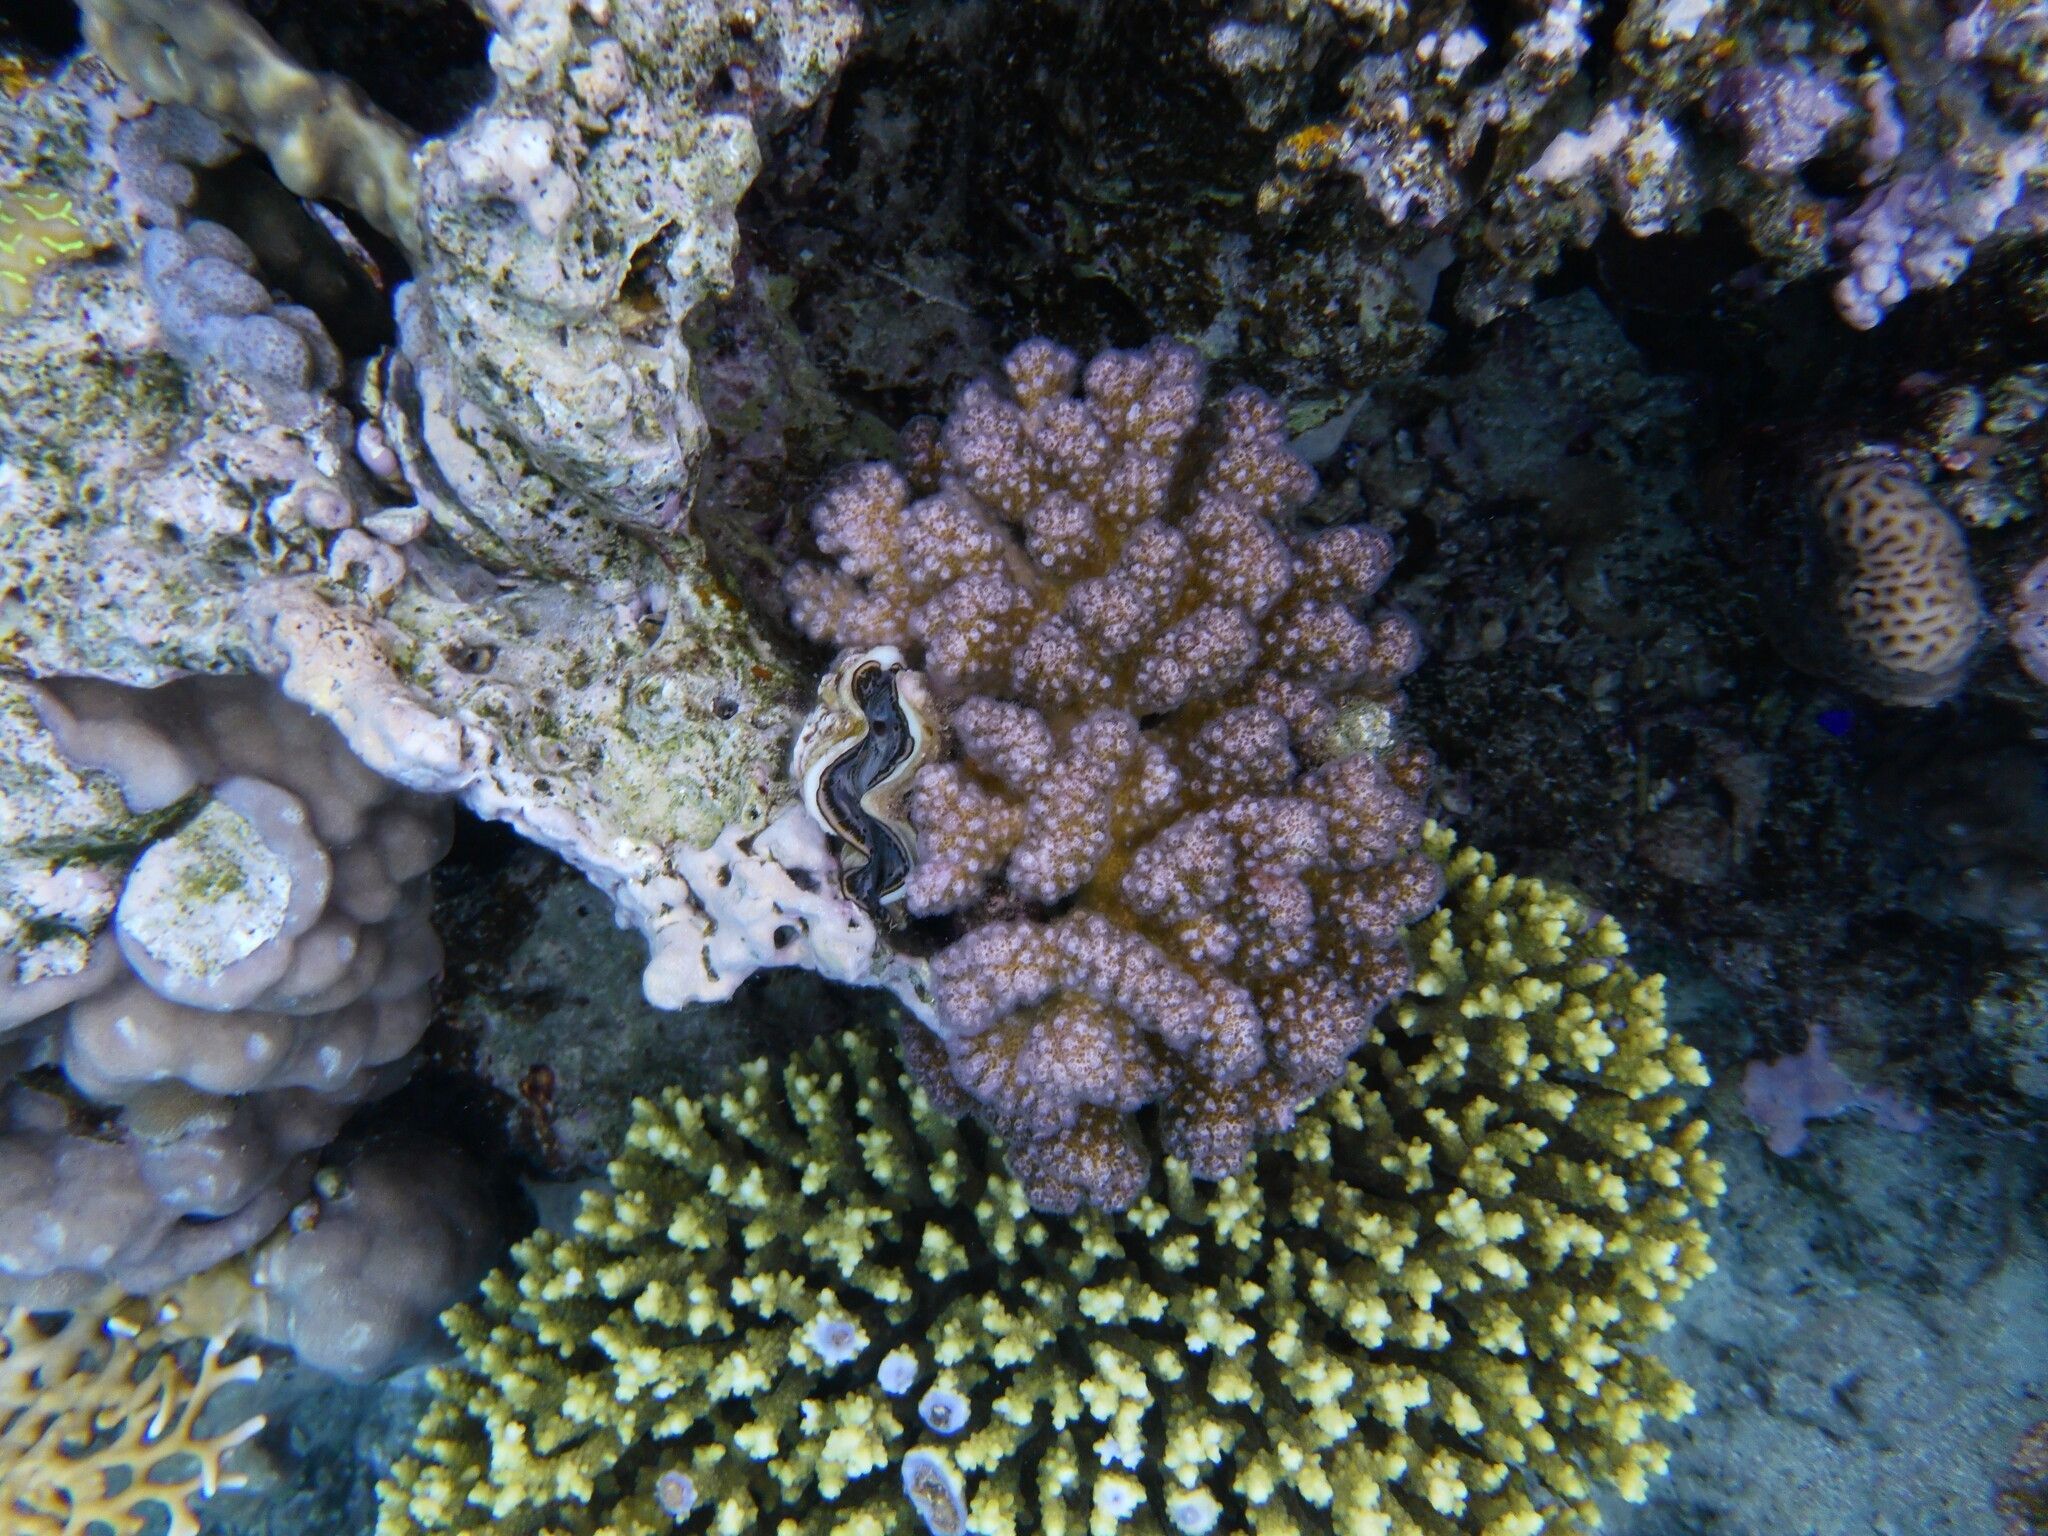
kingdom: Animalia
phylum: Cnidaria
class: Anthozoa
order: Scleractinia
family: Pocilloporidae
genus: Pocillopora
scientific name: Pocillopora verrucosa
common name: Cauliflower coral
